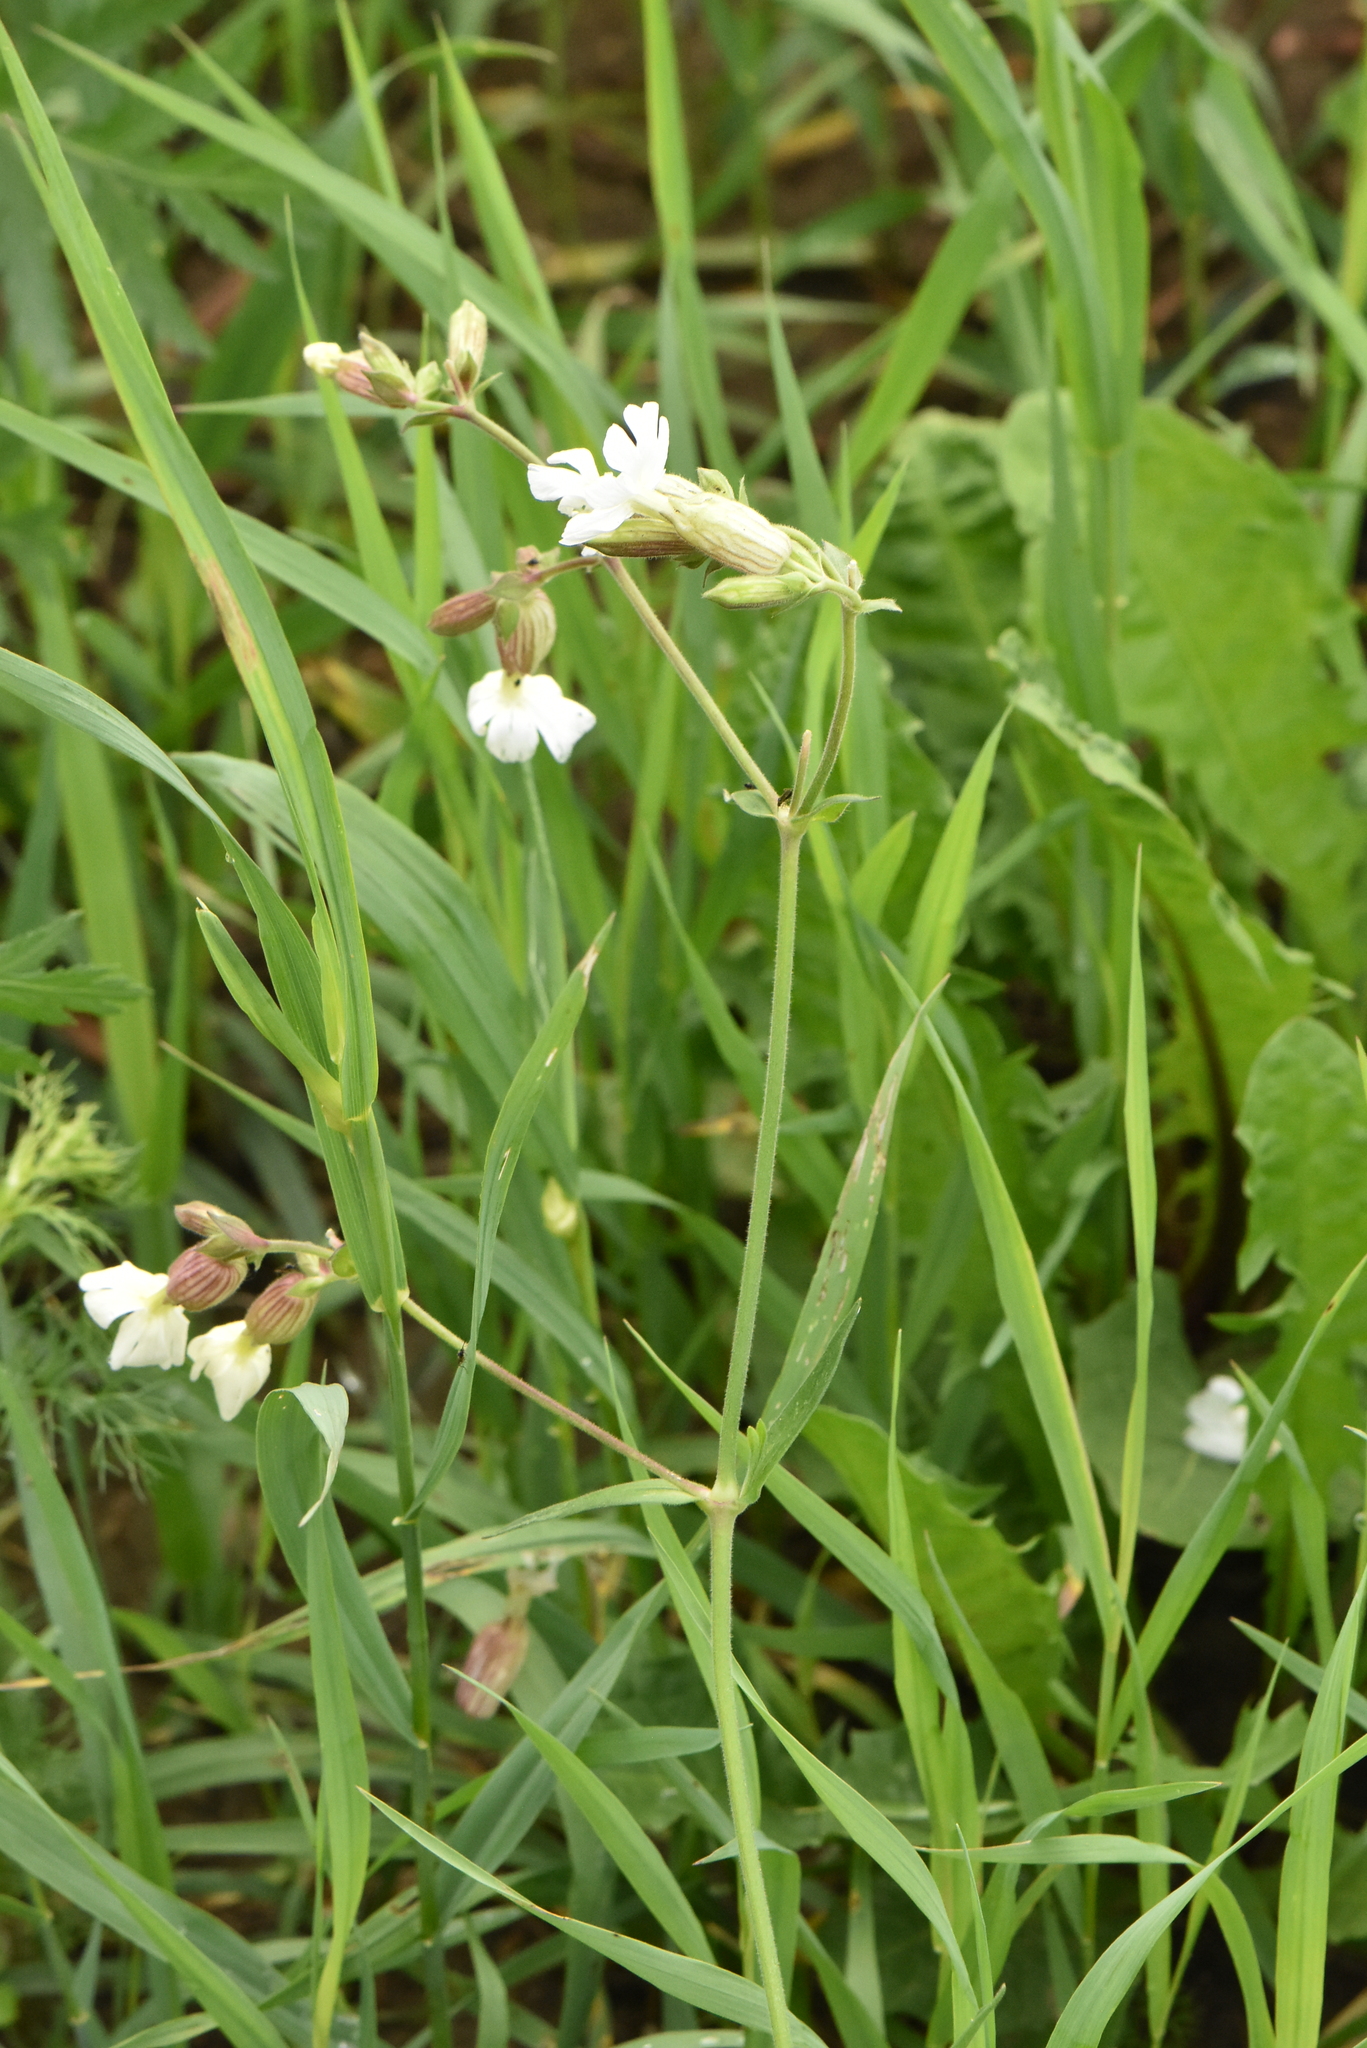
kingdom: Plantae
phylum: Tracheophyta
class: Magnoliopsida
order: Caryophyllales
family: Caryophyllaceae
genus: Silene
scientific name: Silene latifolia
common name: White campion
